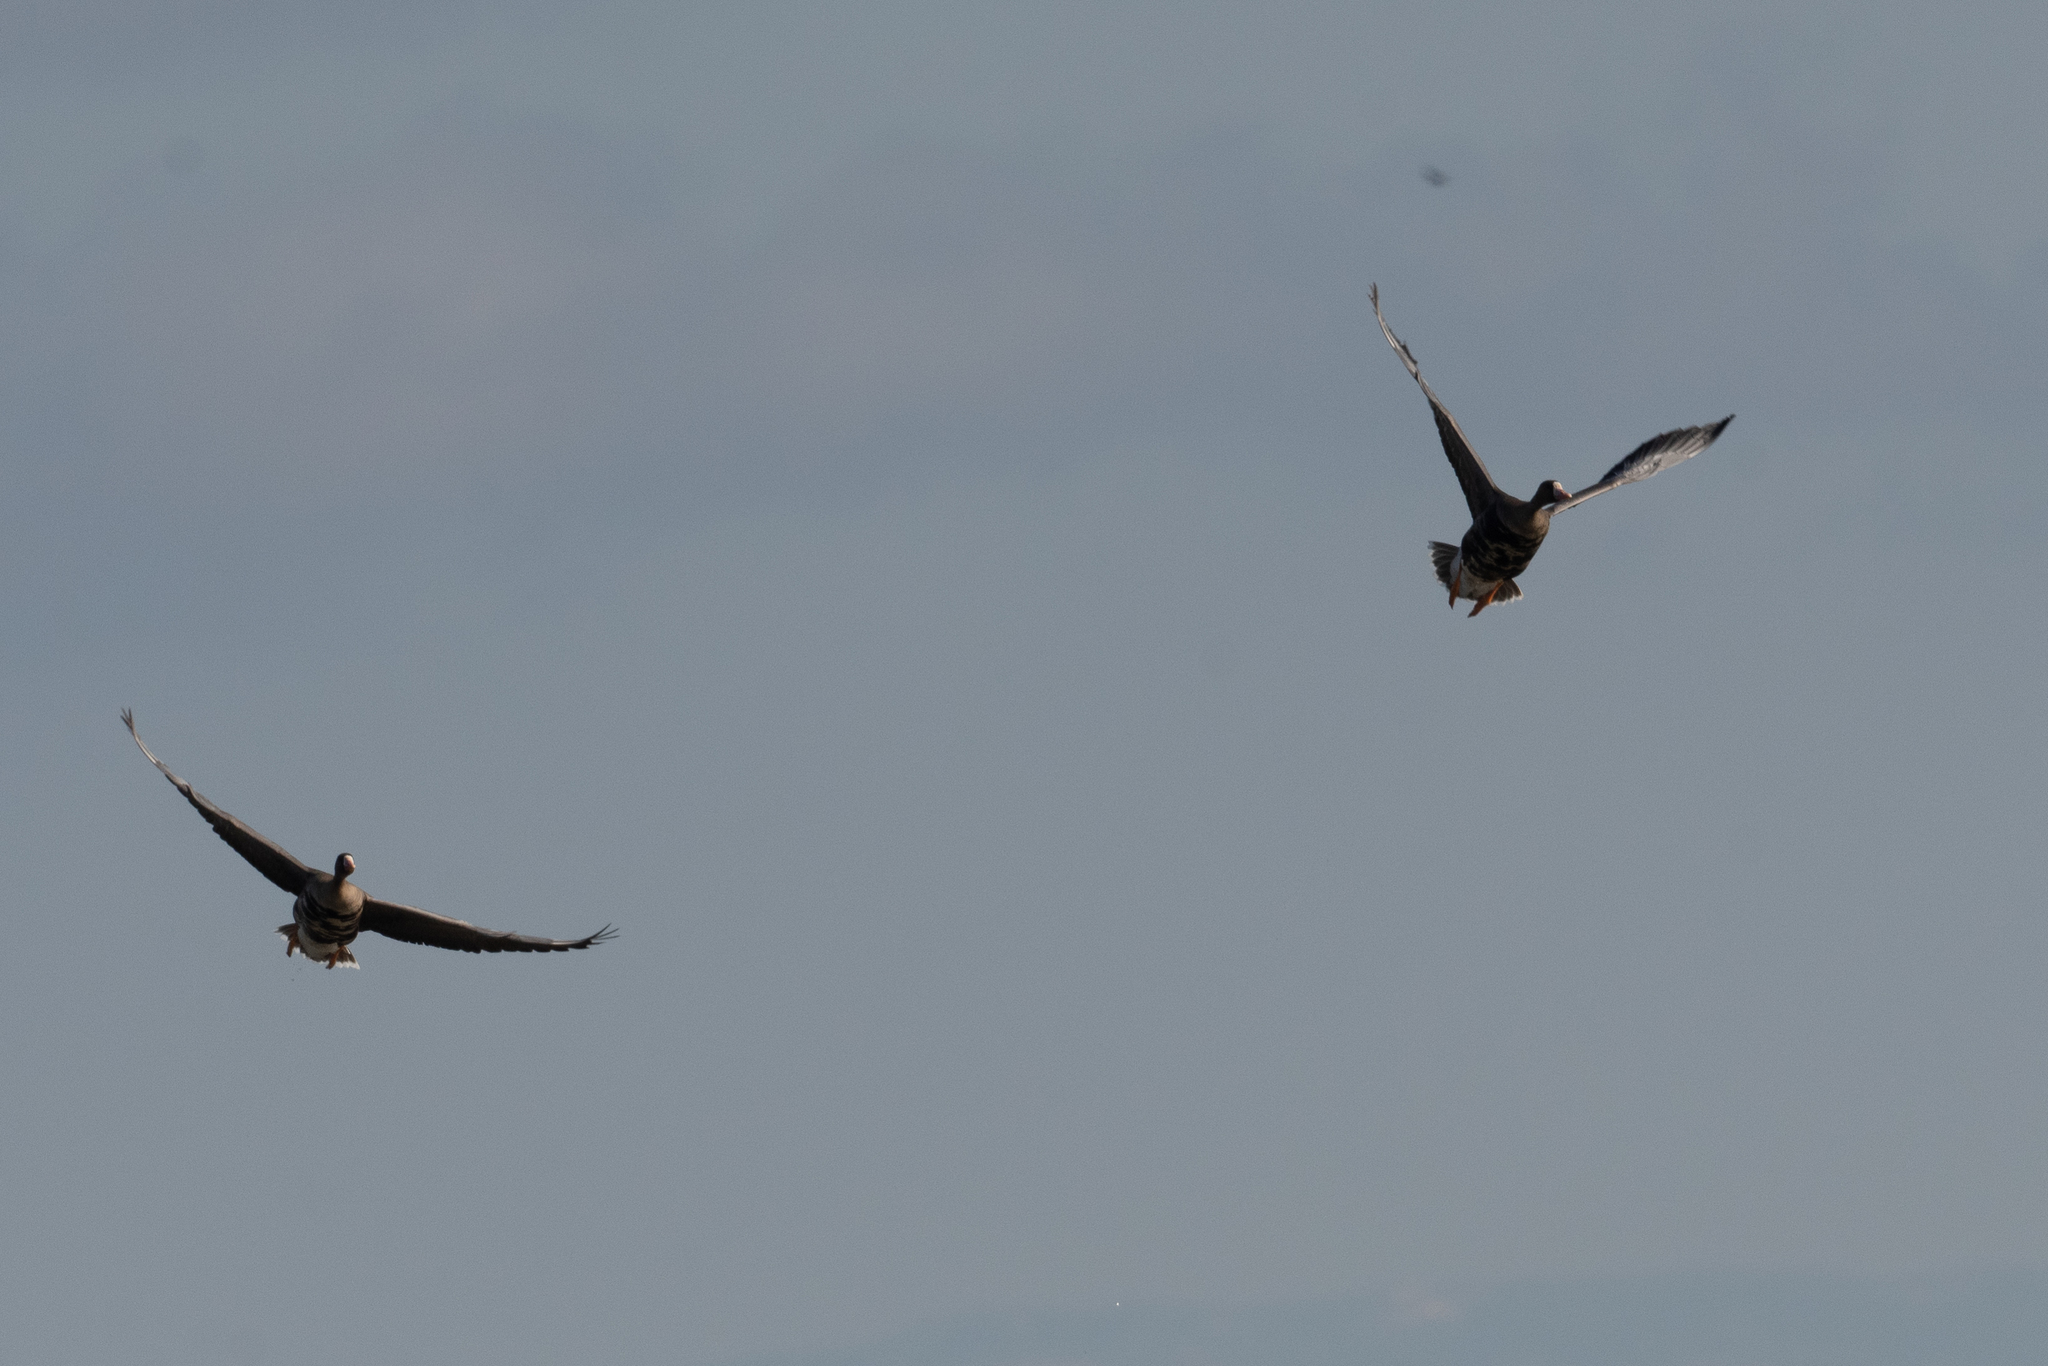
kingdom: Animalia
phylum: Chordata
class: Aves
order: Anseriformes
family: Anatidae
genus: Anser
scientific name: Anser albifrons
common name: Greater white-fronted goose
